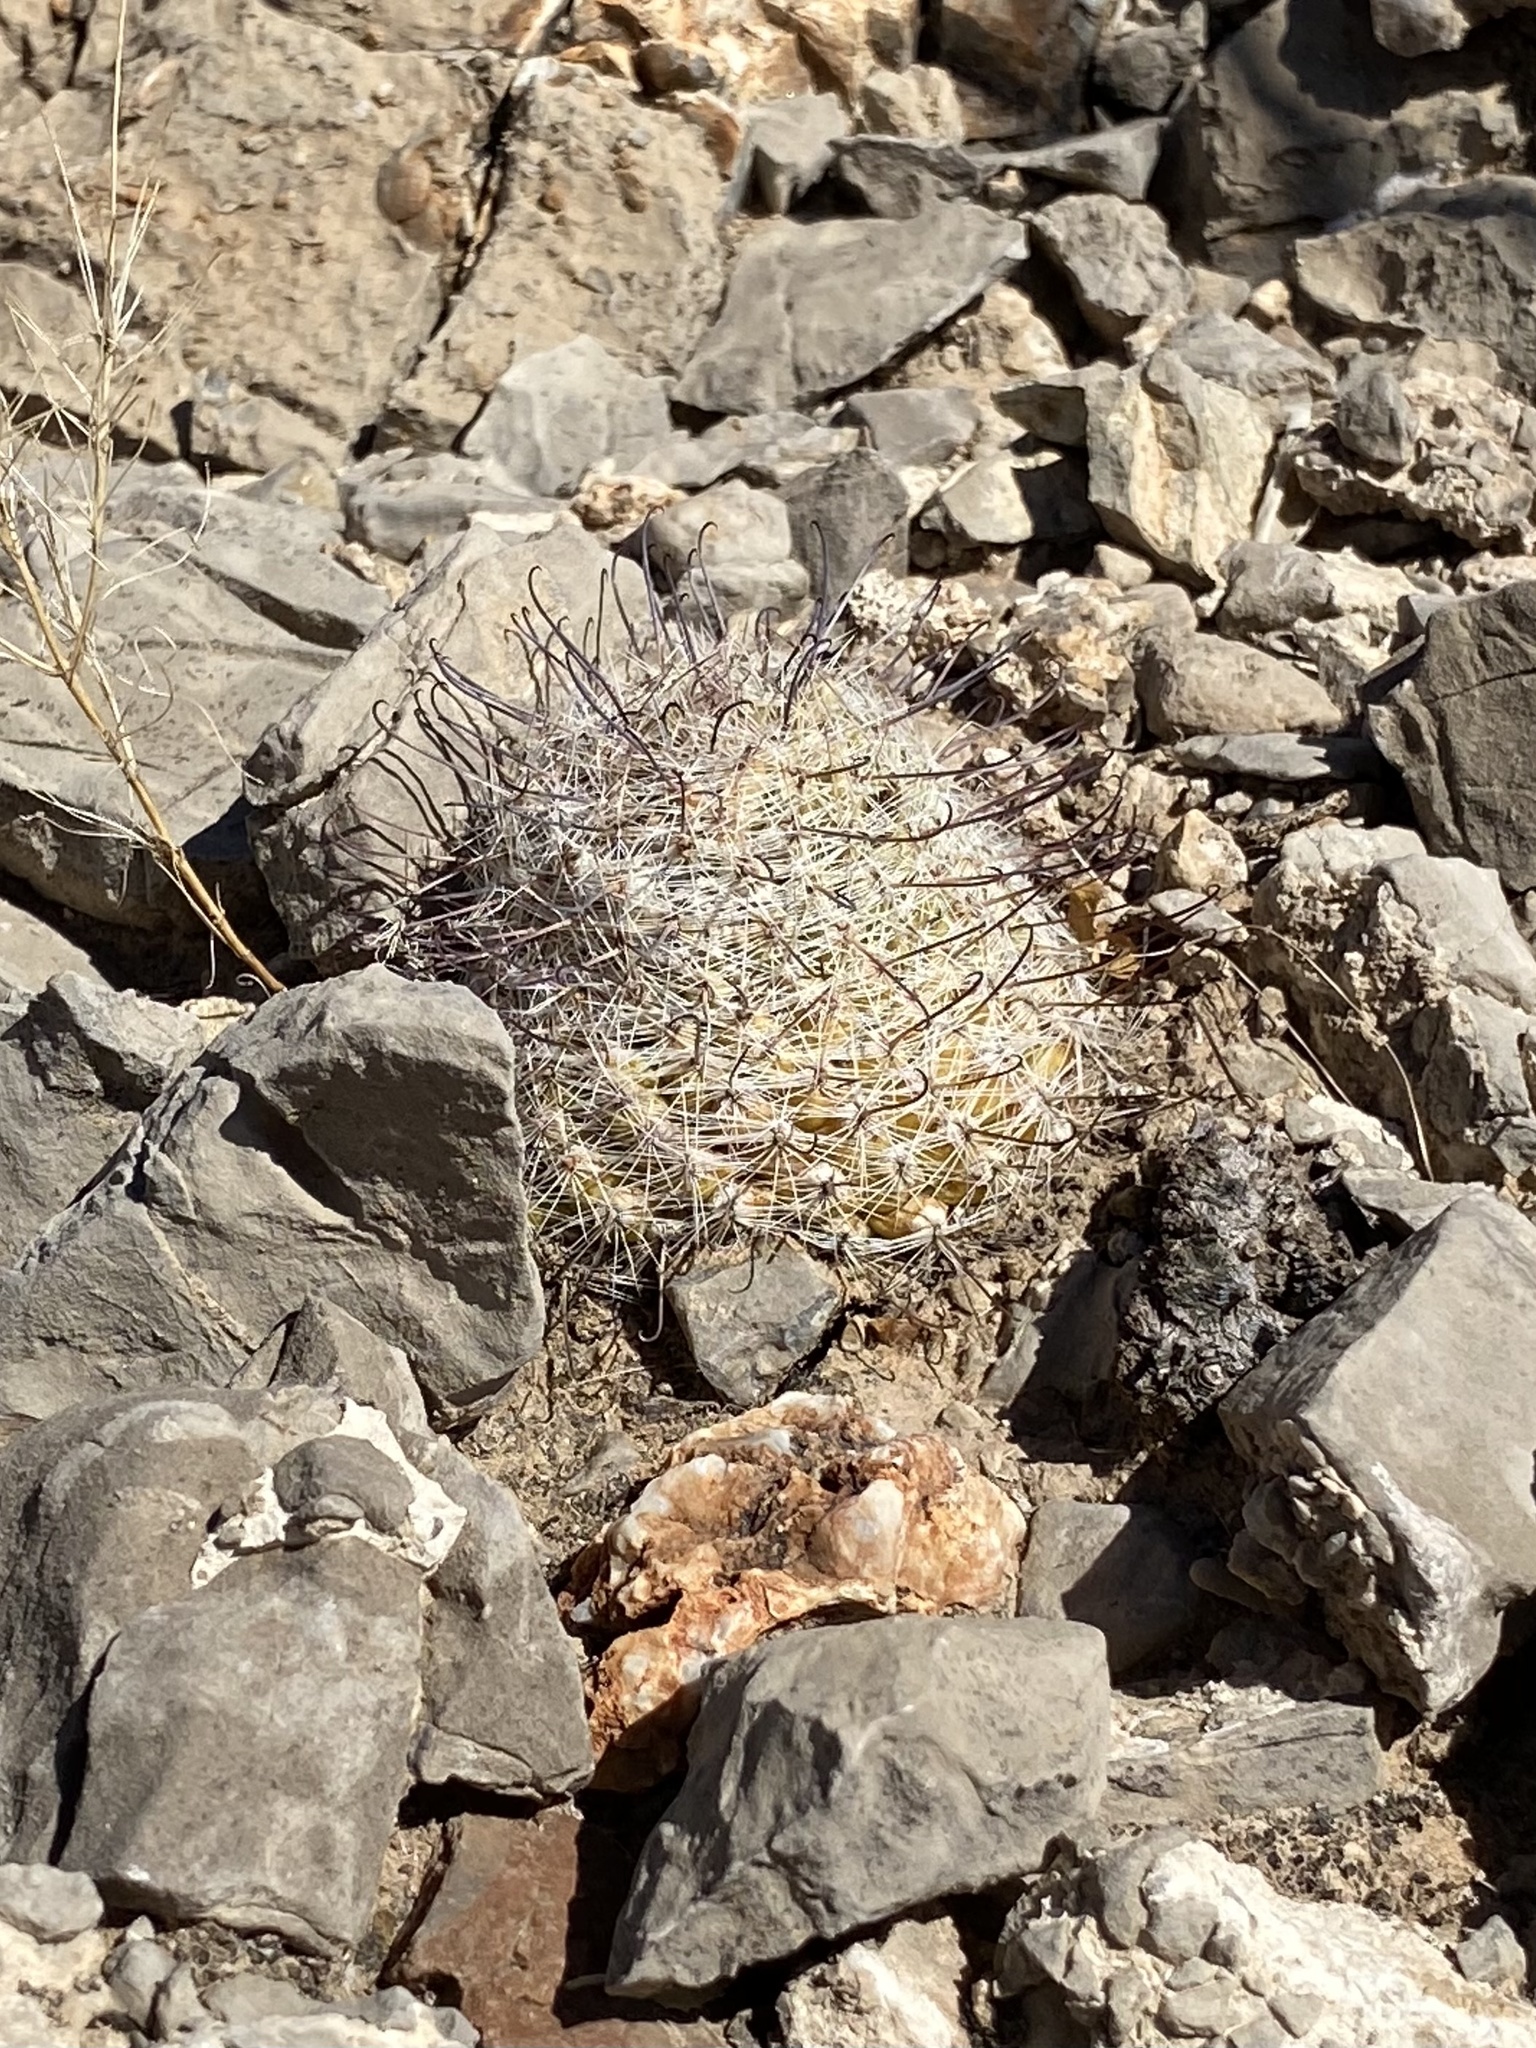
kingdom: Plantae
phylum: Tracheophyta
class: Magnoliopsida
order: Caryophyllales
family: Cactaceae
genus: Cochemiea
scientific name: Cochemiea grahamii
